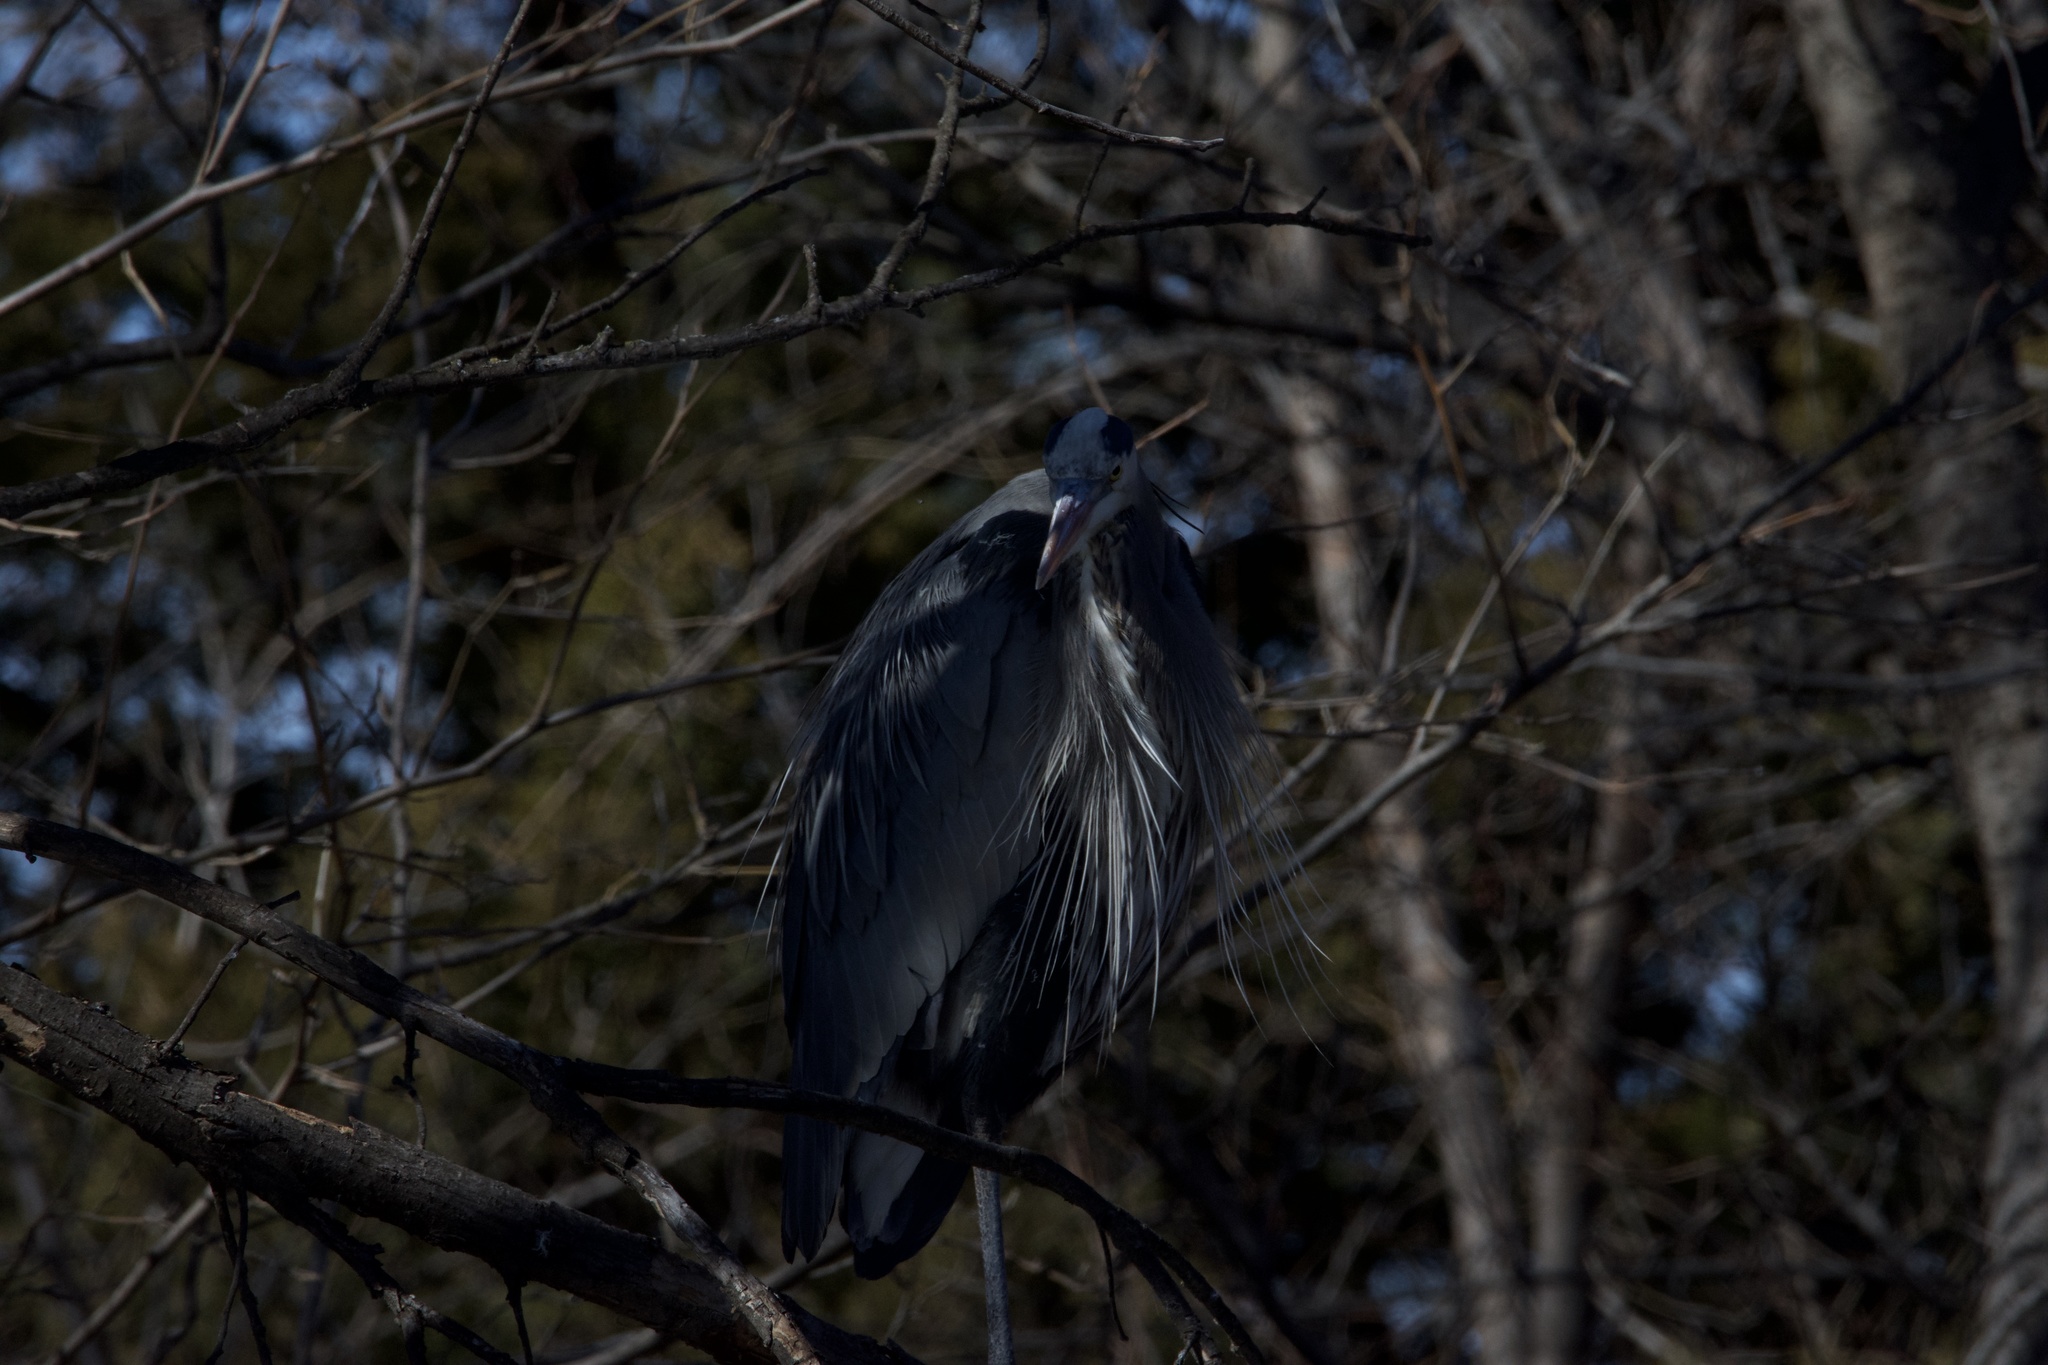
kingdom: Animalia
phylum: Chordata
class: Aves
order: Pelecaniformes
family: Ardeidae
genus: Ardea
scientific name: Ardea herodias
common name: Great blue heron
